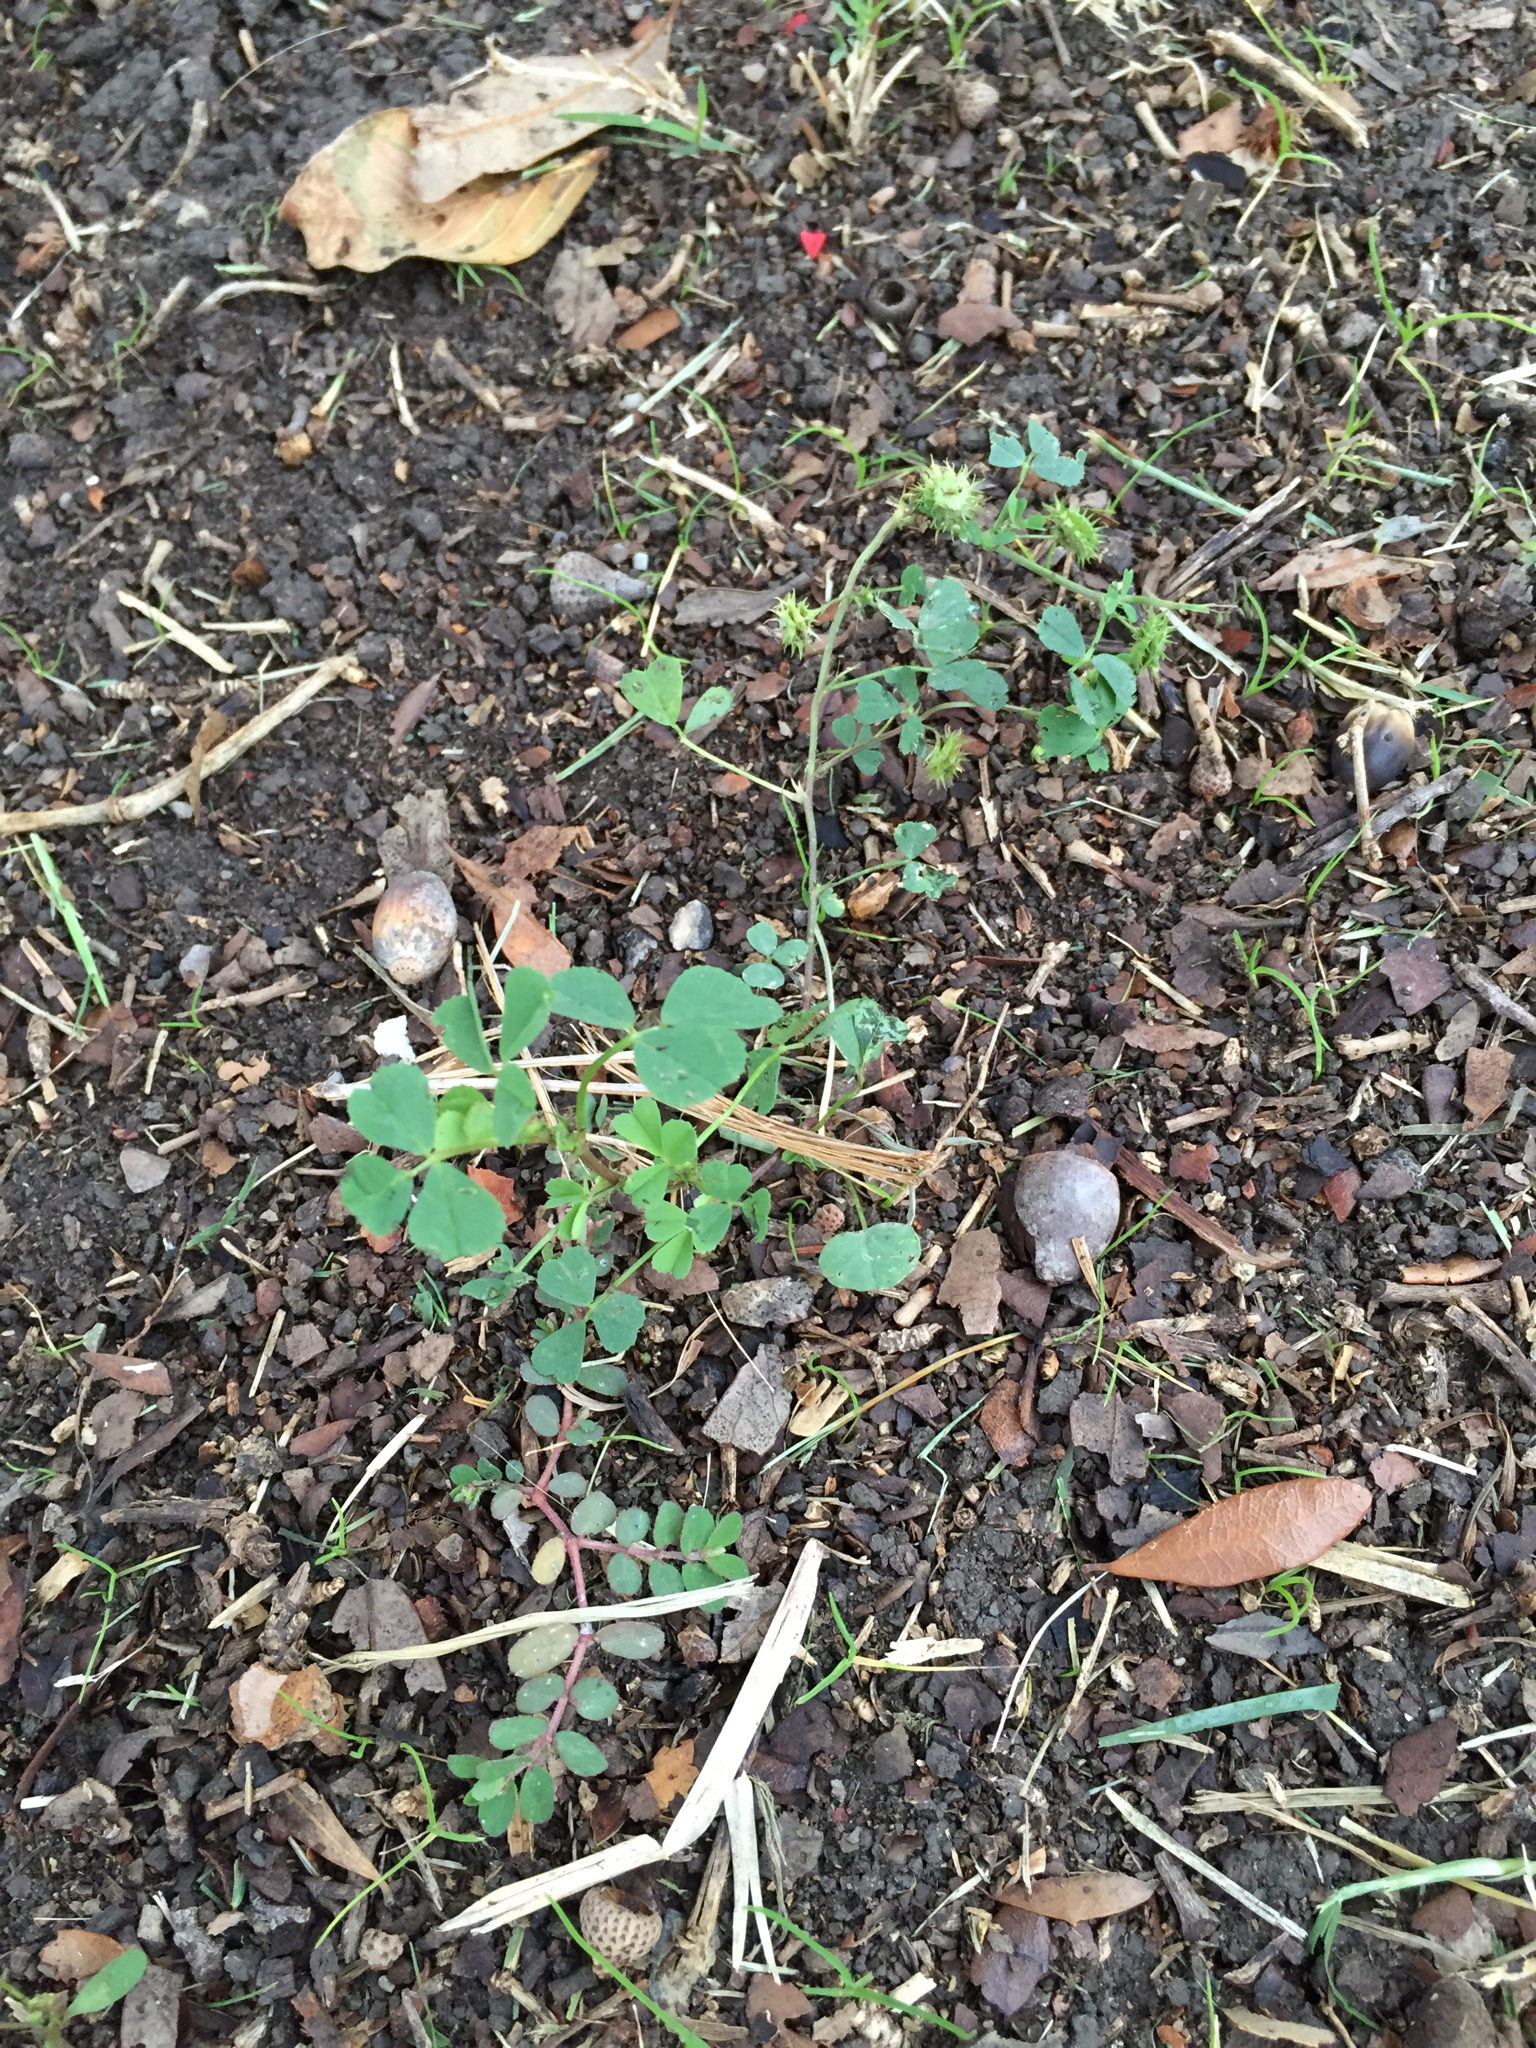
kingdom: Plantae
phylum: Tracheophyta
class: Magnoliopsida
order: Fabales
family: Fabaceae
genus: Medicago
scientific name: Medicago polymorpha
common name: Burclover
